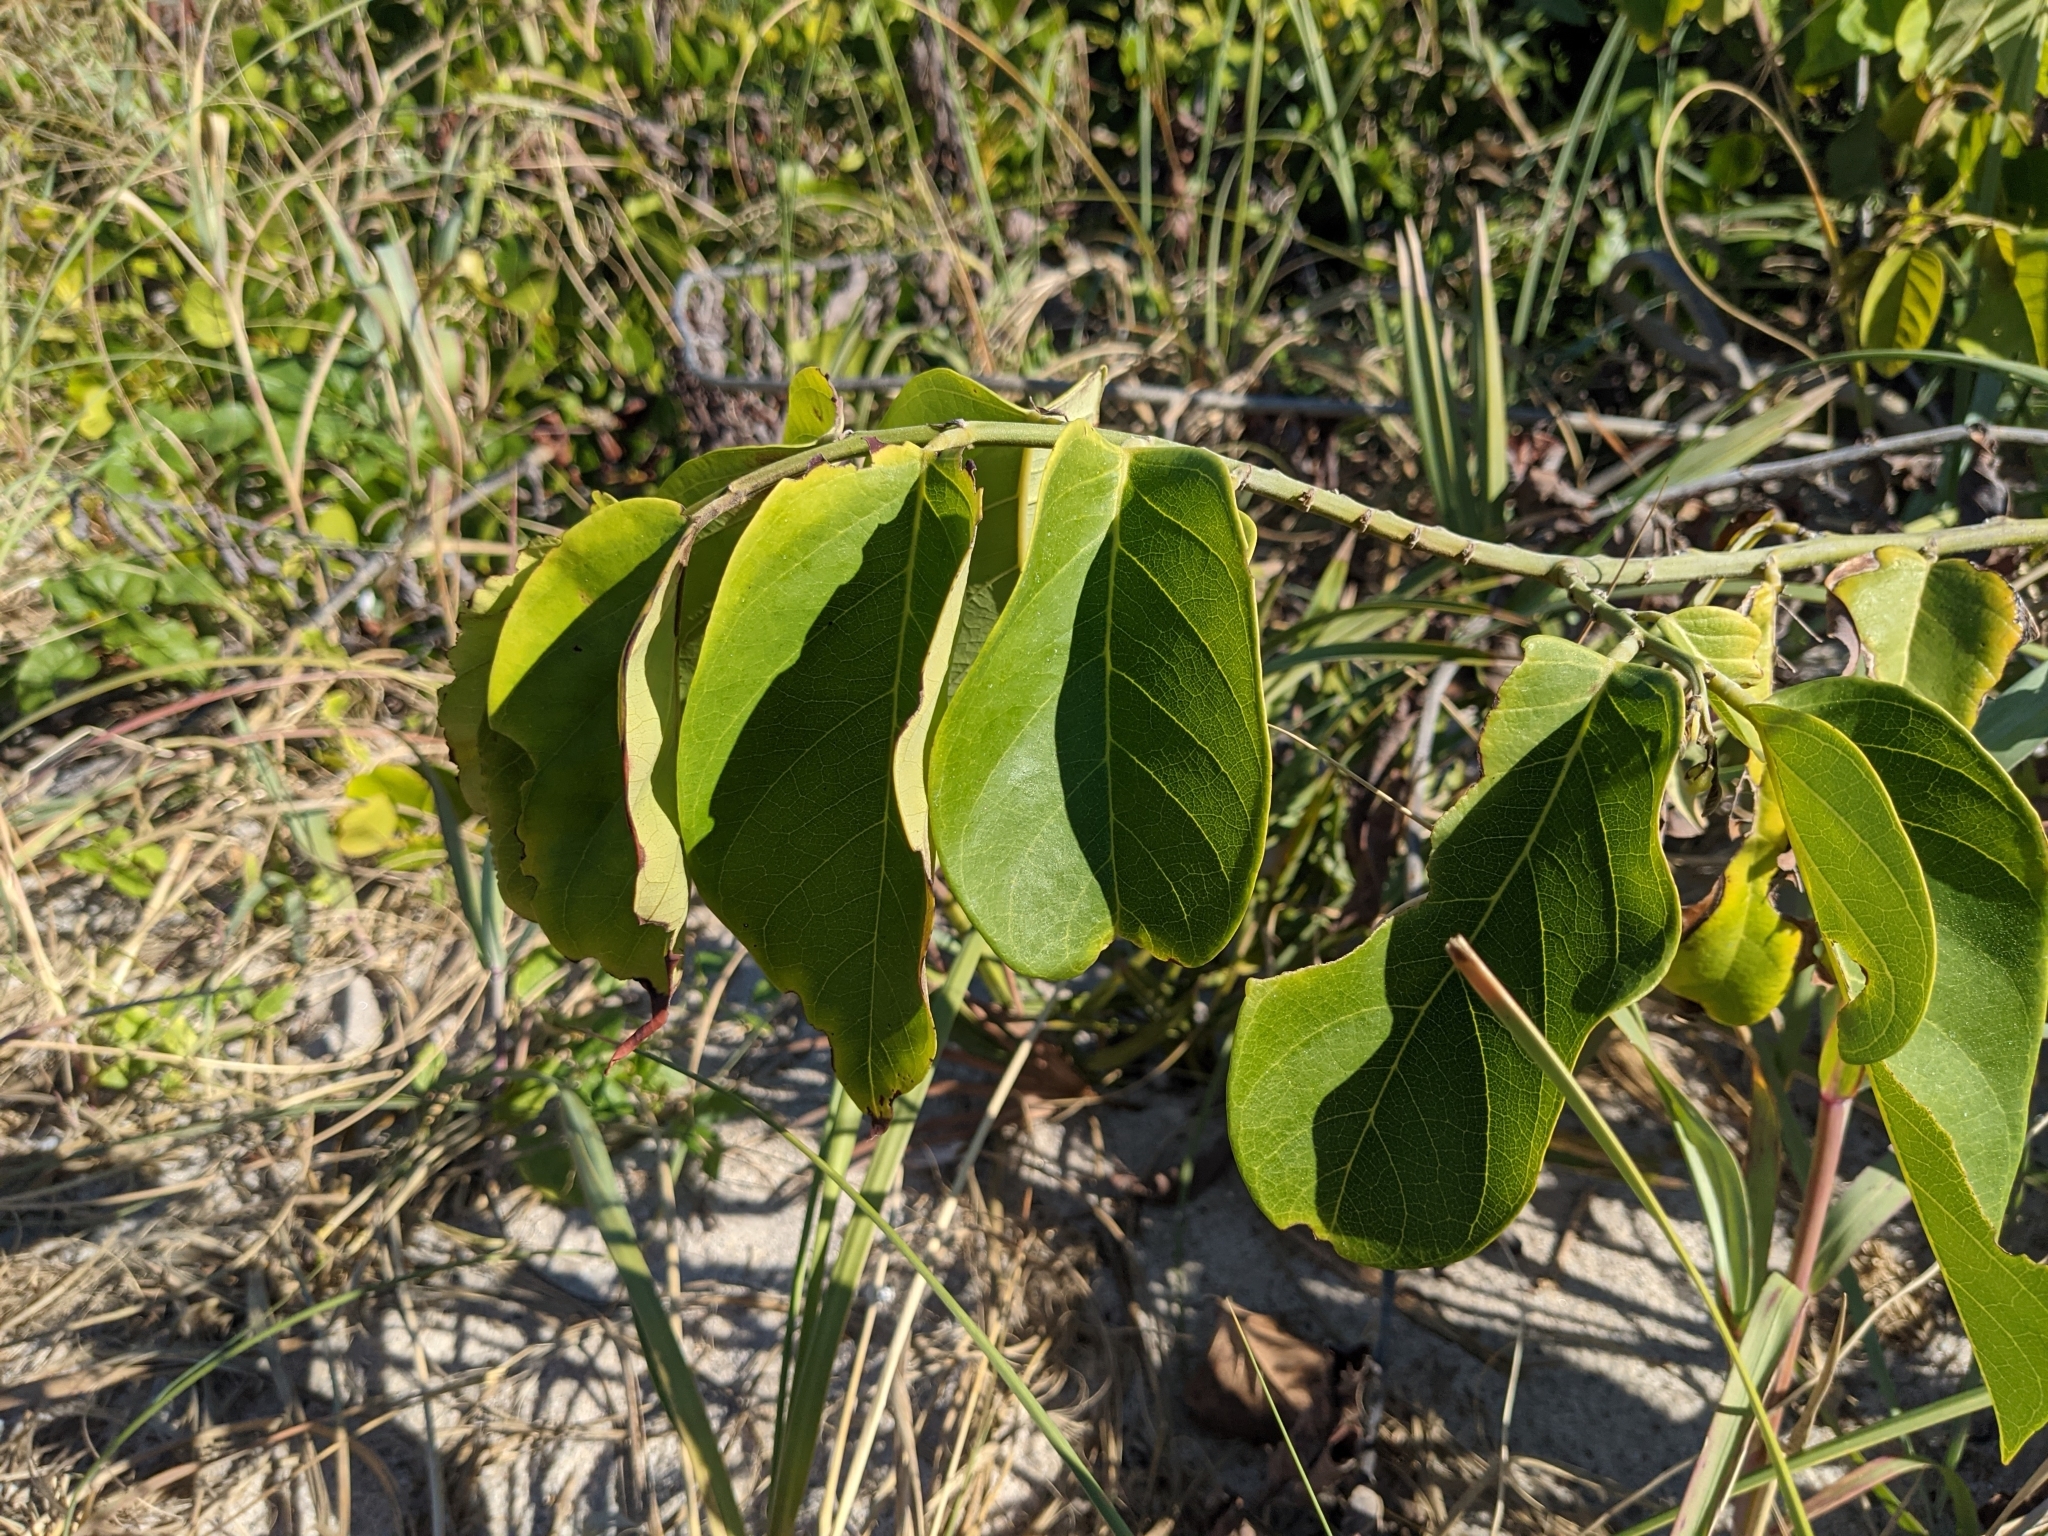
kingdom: Plantae
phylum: Tracheophyta
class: Magnoliopsida
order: Fabales
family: Fabaceae
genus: Dalbergia
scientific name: Dalbergia ecastaphyllum
